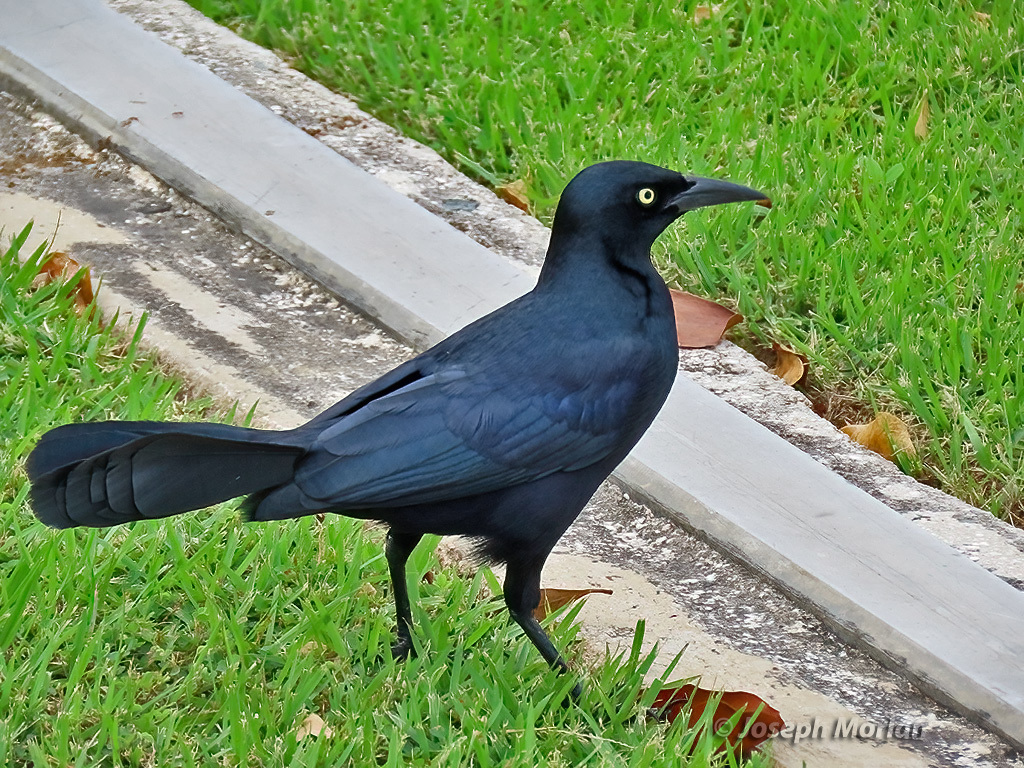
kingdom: Animalia
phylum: Chordata
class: Aves
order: Passeriformes
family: Icteridae
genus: Quiscalus
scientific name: Quiscalus niger
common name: Greater antillean grackle
